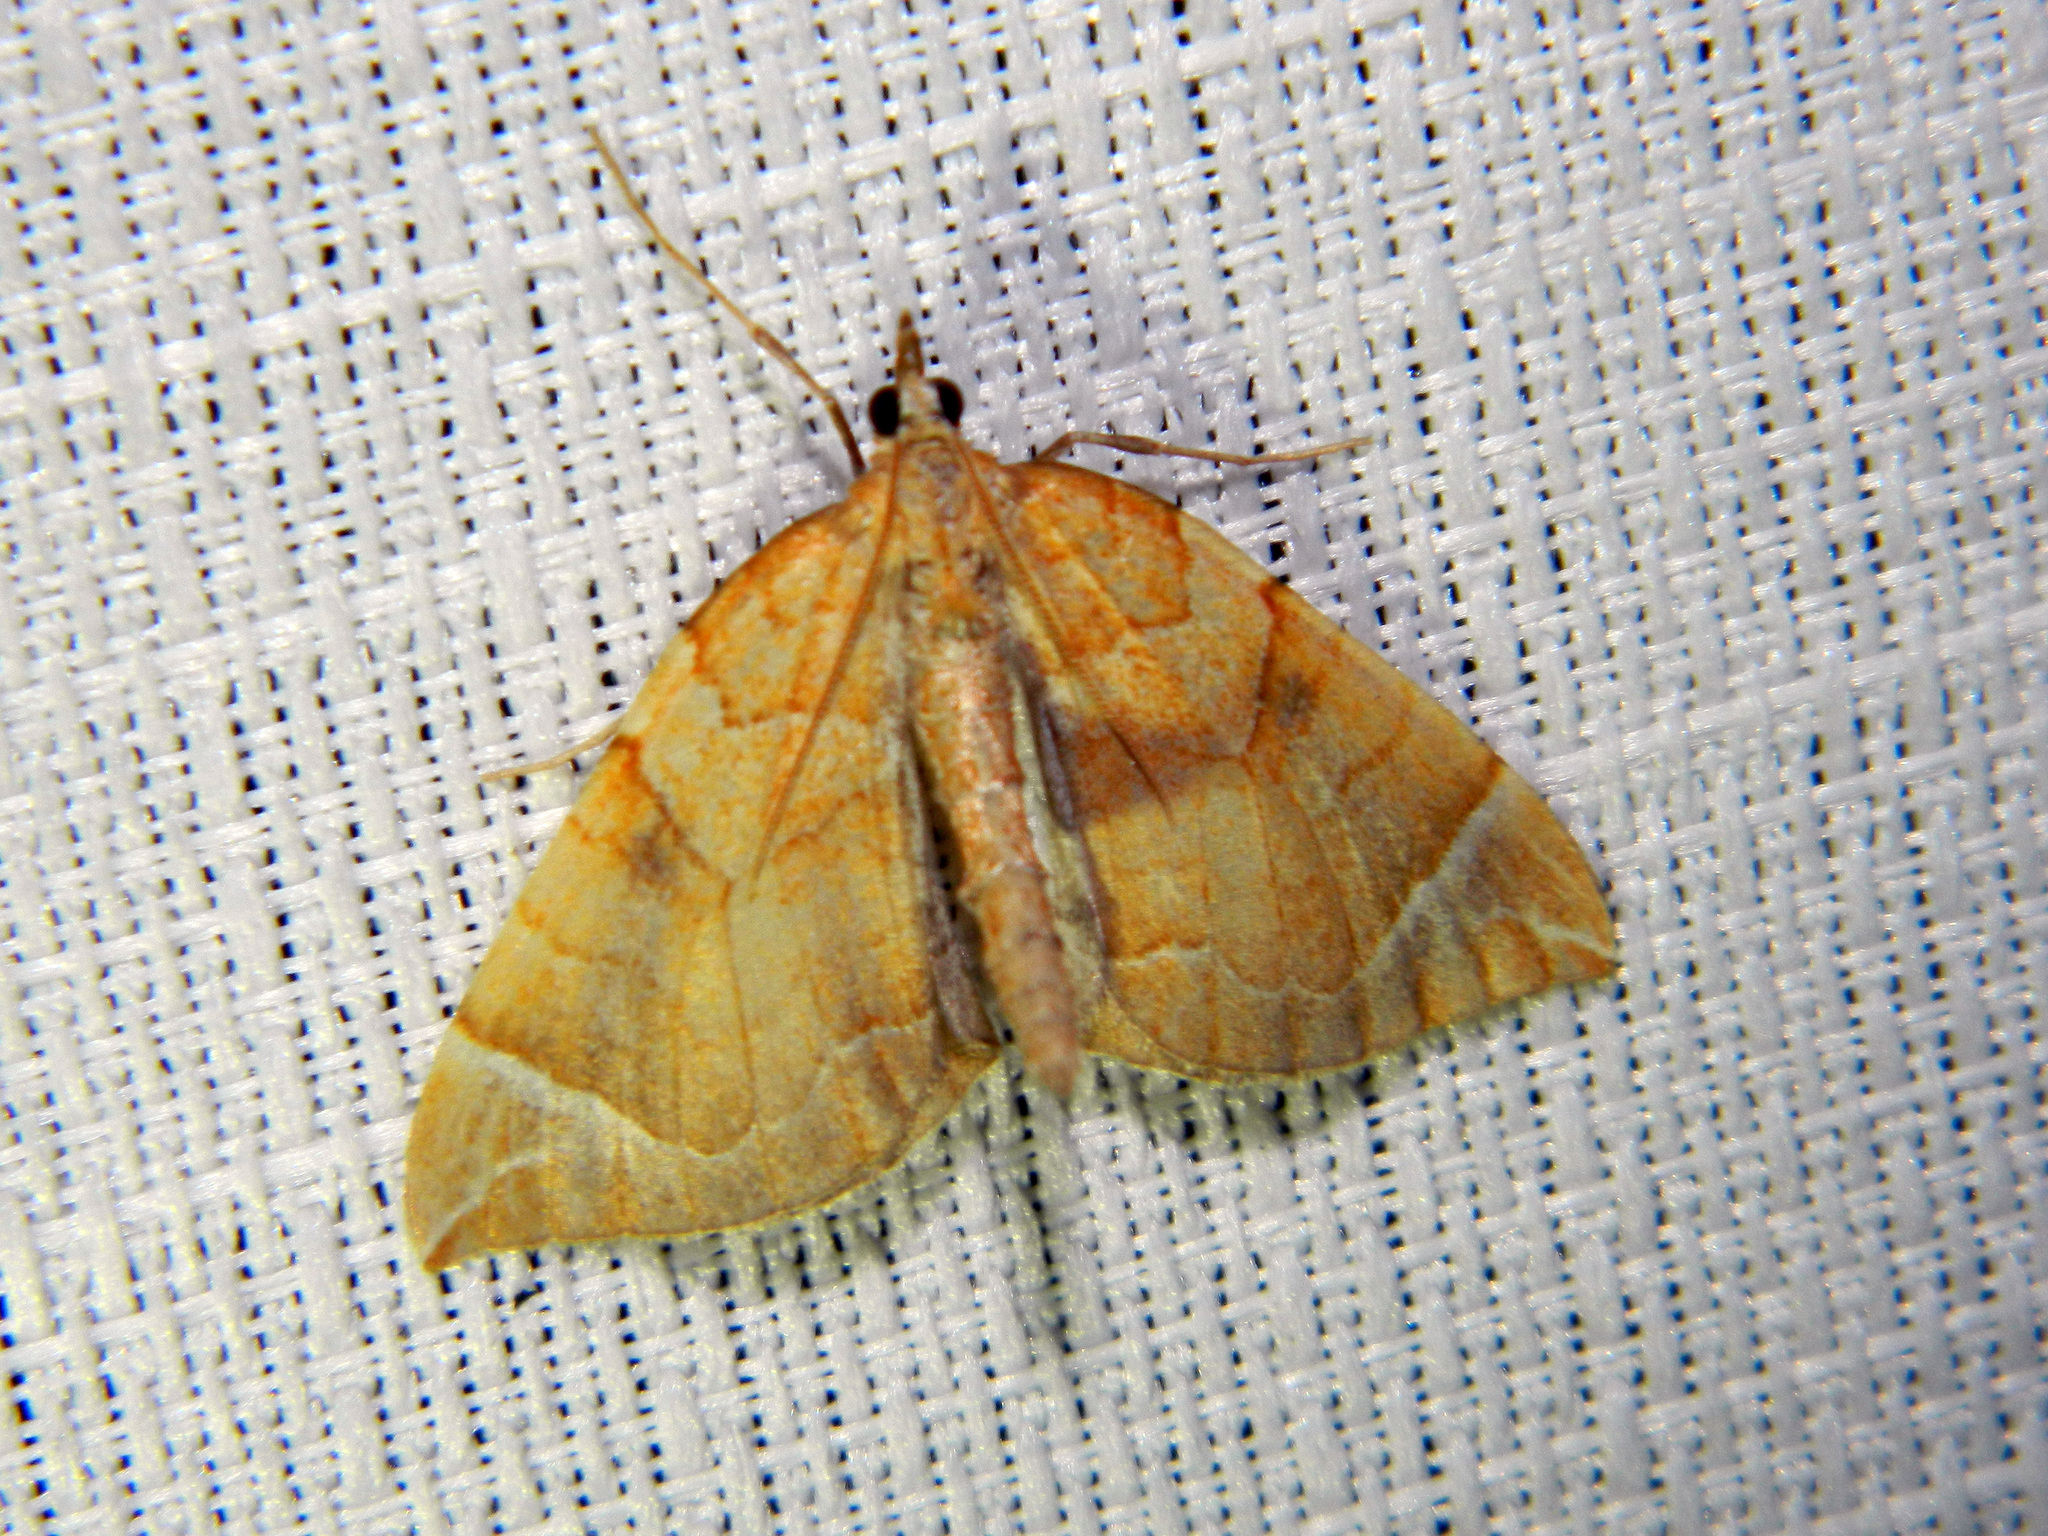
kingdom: Animalia
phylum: Arthropoda
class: Insecta
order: Lepidoptera
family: Geometridae
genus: Eulithis
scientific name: Eulithis testata
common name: Chevron
